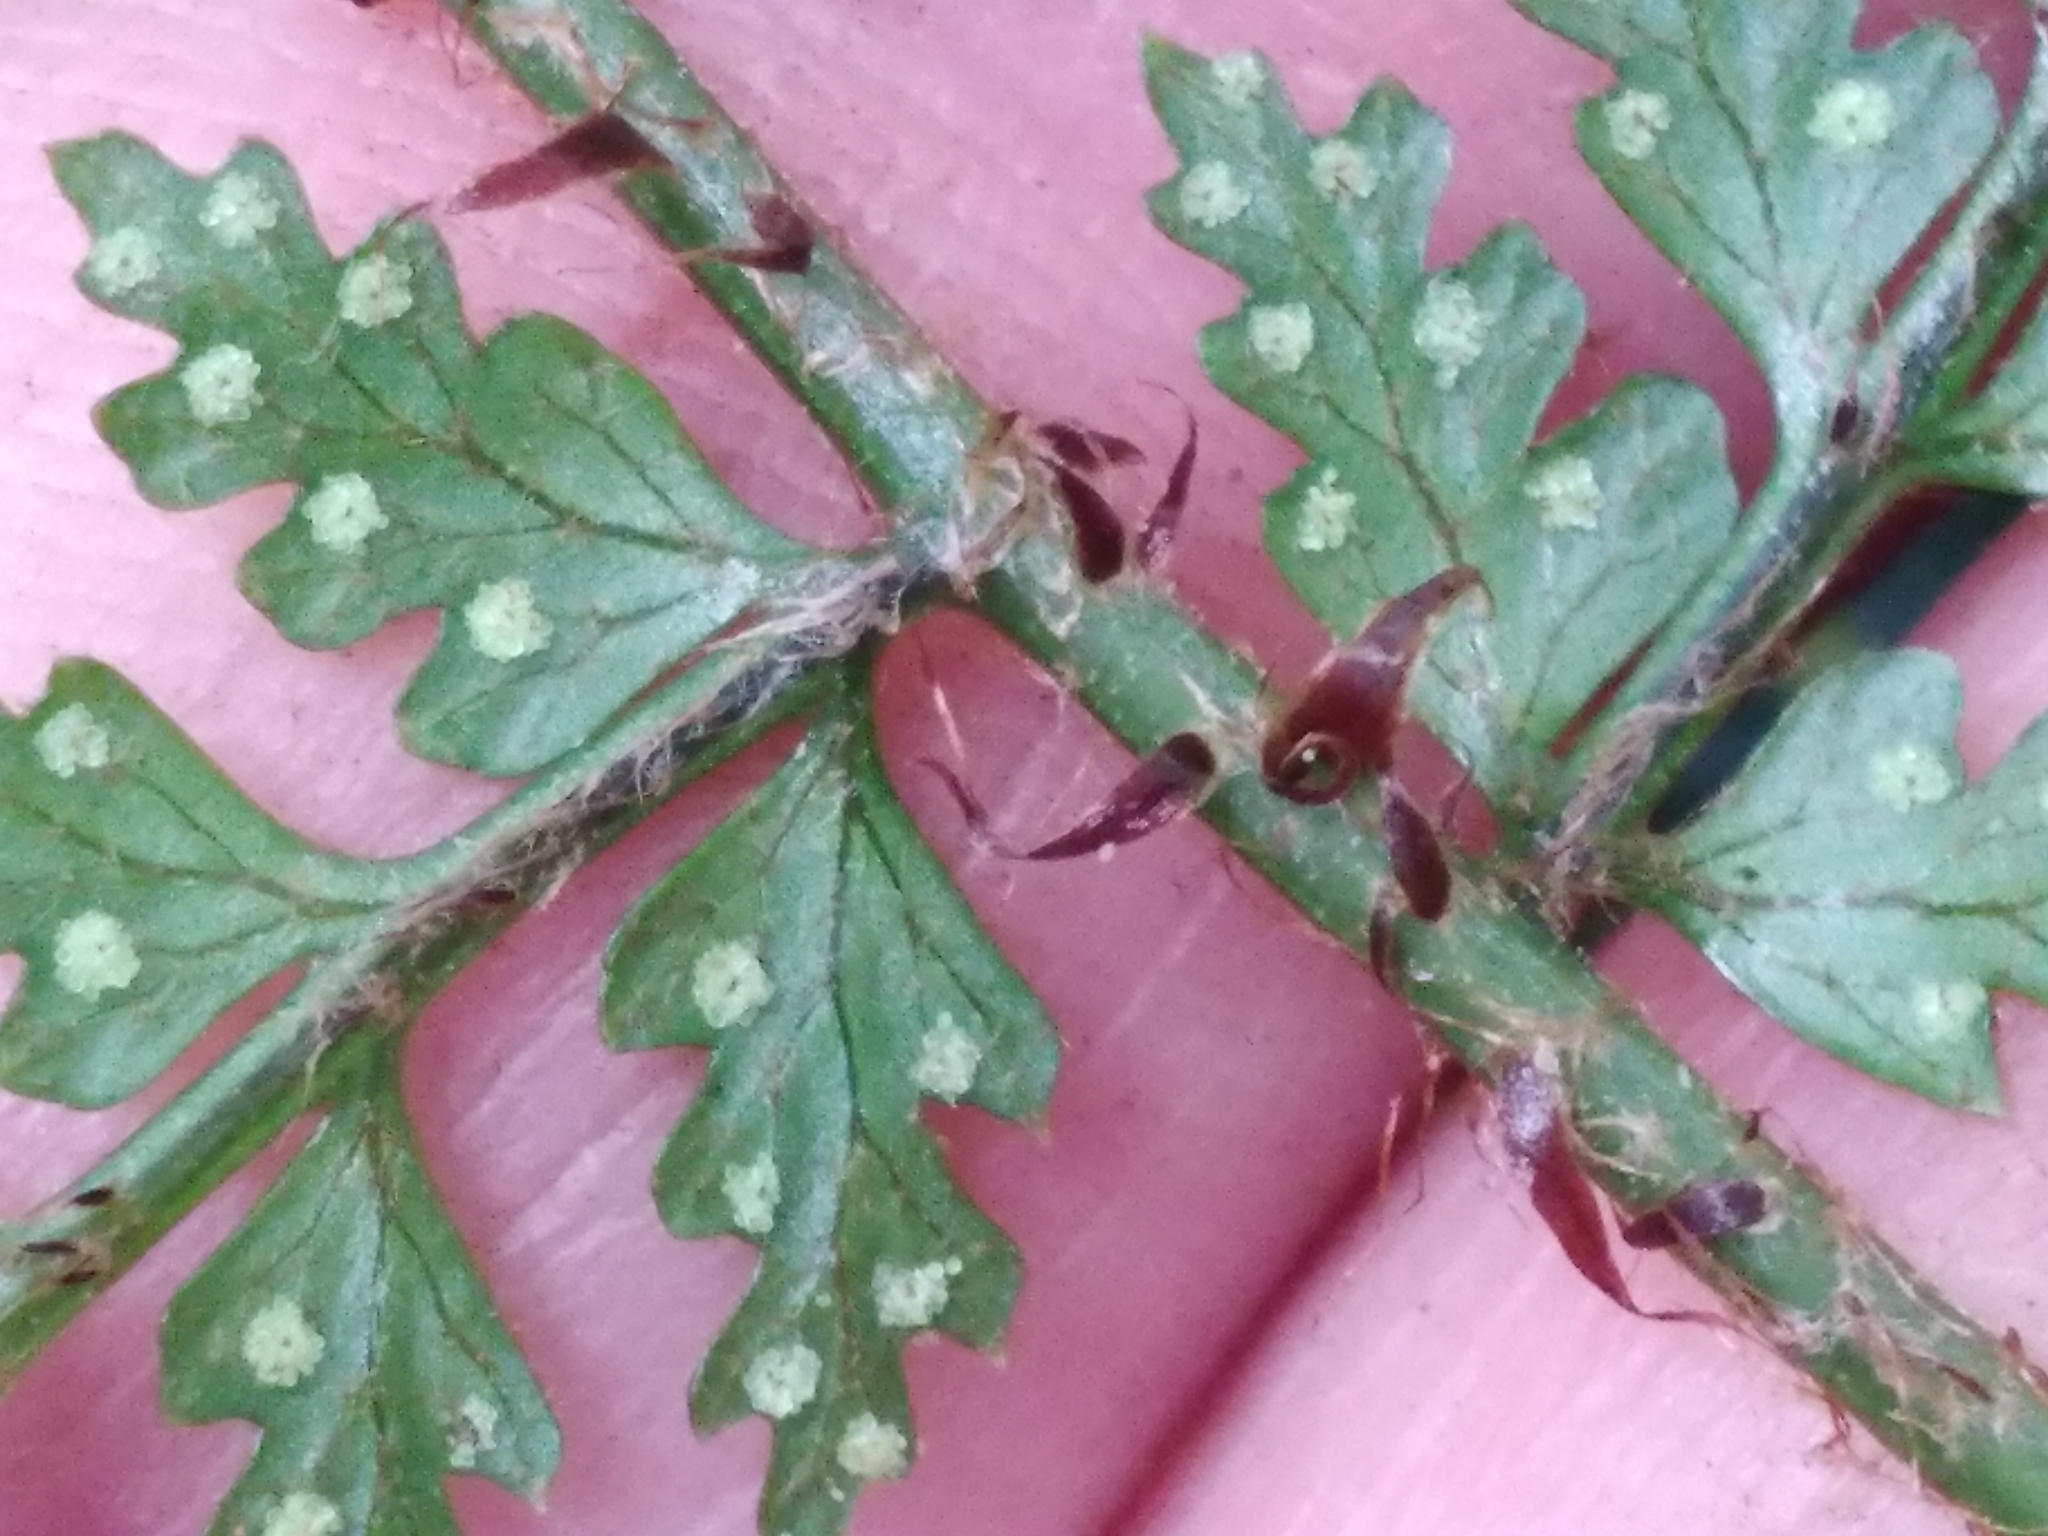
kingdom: Plantae
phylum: Tracheophyta
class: Polypodiopsida
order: Polypodiales
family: Dryopteridaceae
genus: Polystichum
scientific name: Polystichum silvaticum
